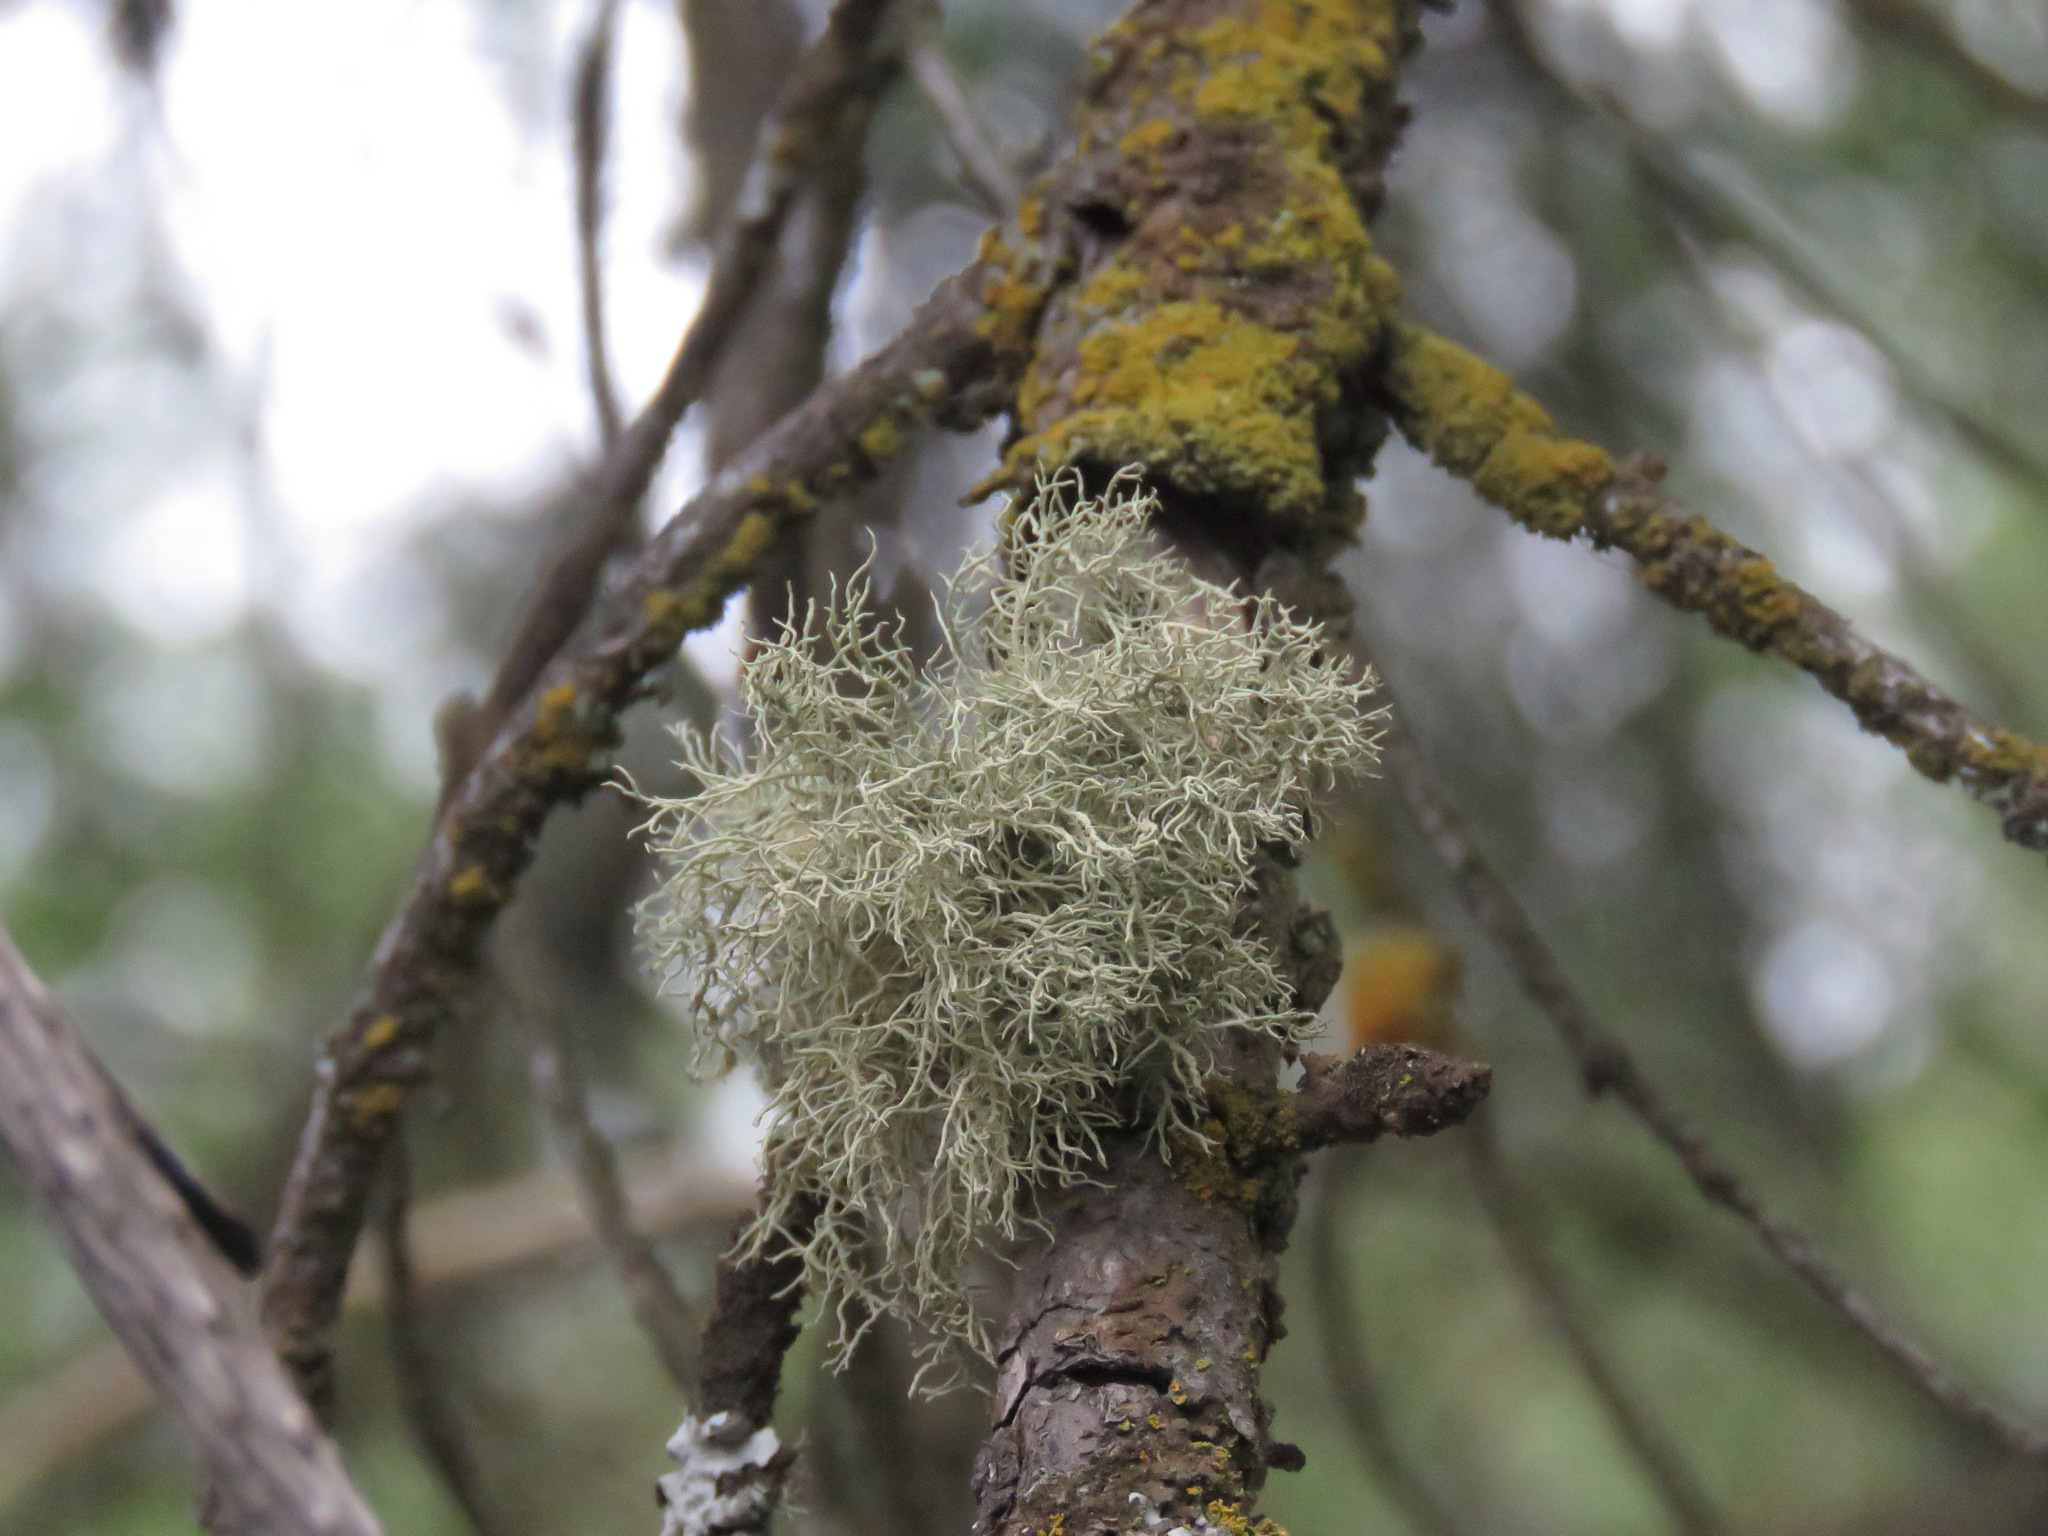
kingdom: Fungi
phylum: Ascomycota
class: Lecanoromycetes
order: Lecanorales
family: Parmeliaceae
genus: Usnea
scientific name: Usnea hirta
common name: Bristly beard lichen
